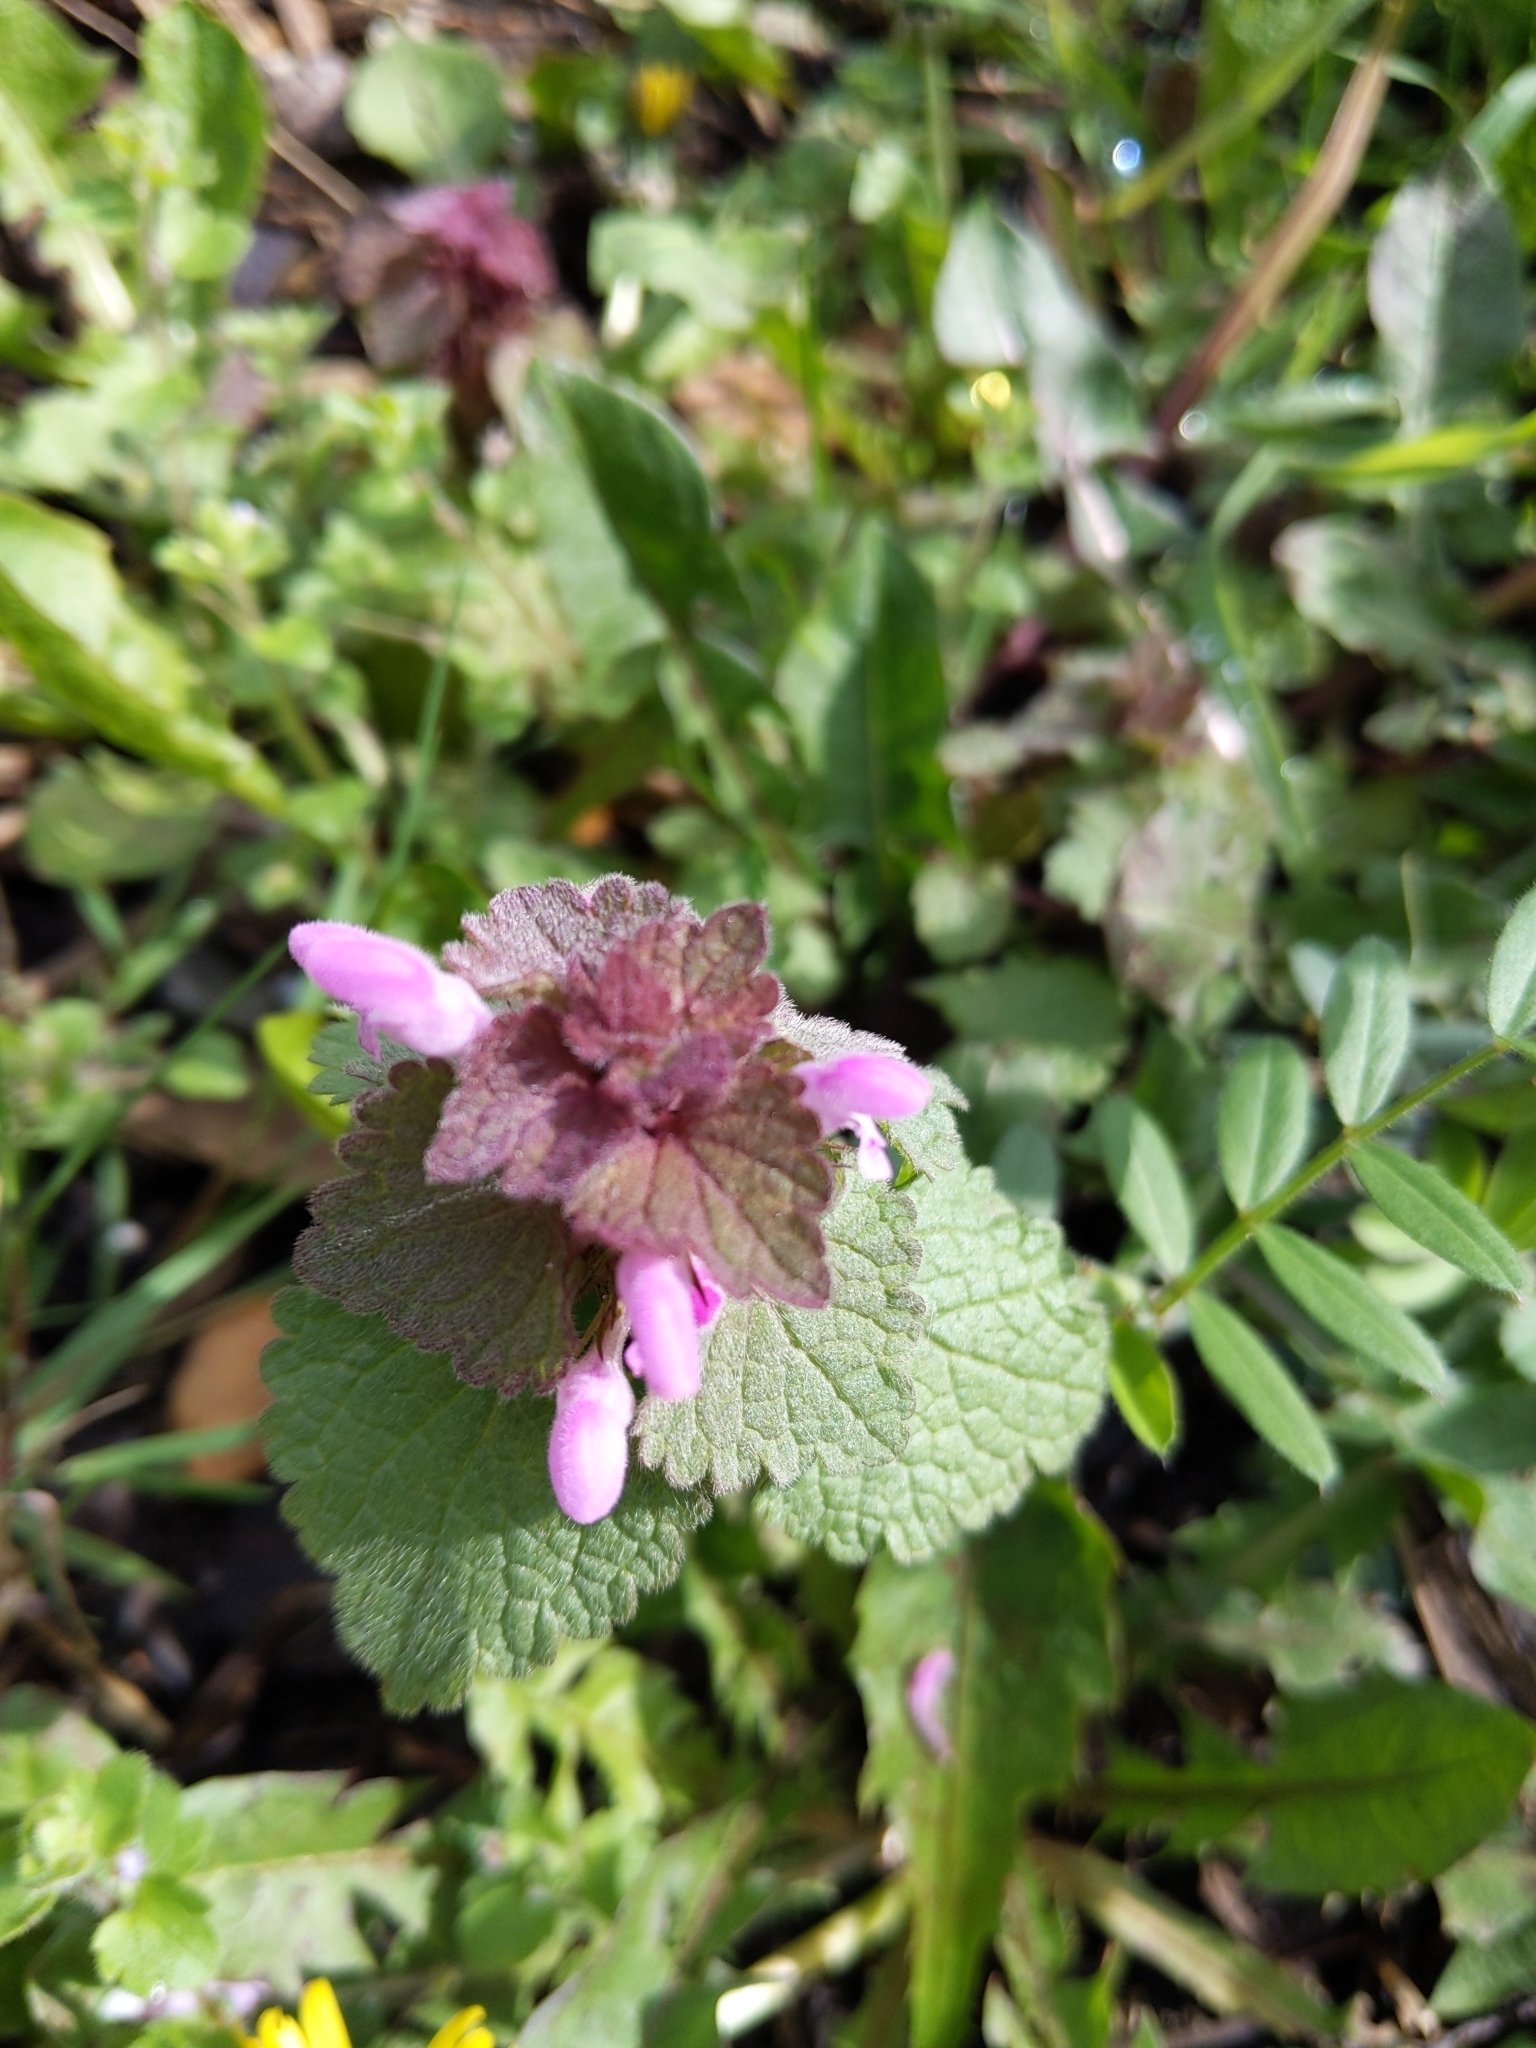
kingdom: Plantae
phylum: Tracheophyta
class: Magnoliopsida
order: Lamiales
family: Lamiaceae
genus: Lamium
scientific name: Lamium purpureum
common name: Red dead-nettle
